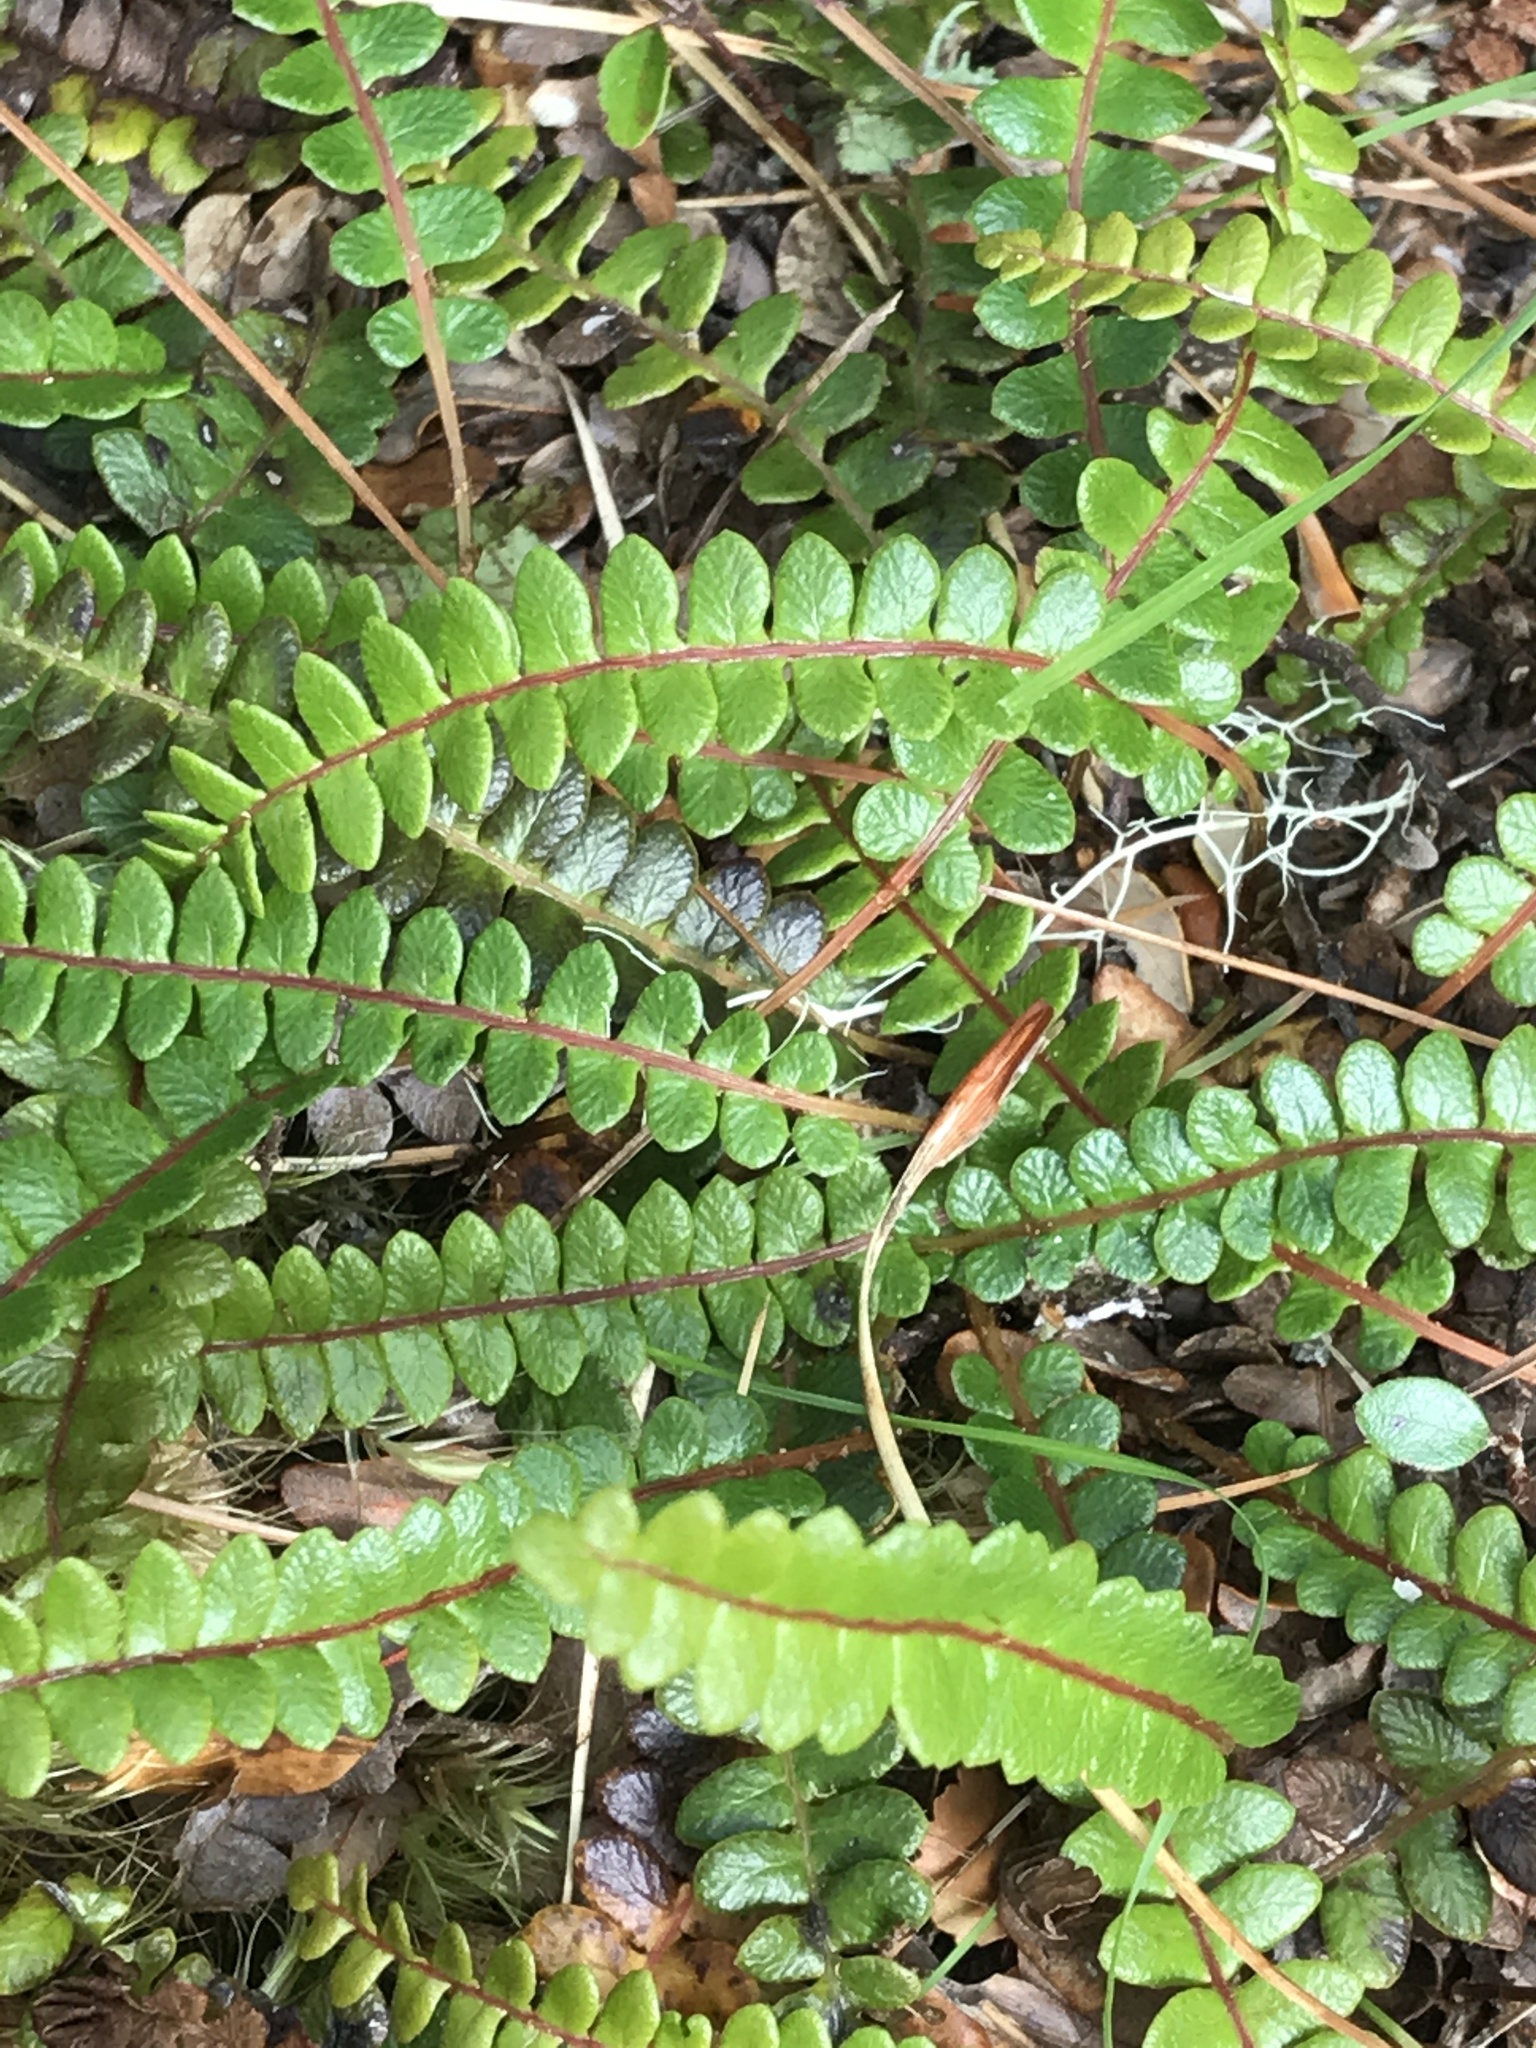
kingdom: Plantae
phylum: Tracheophyta
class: Polypodiopsida
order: Polypodiales
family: Blechnaceae
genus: Austroblechnum
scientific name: Austroblechnum penna-marina
